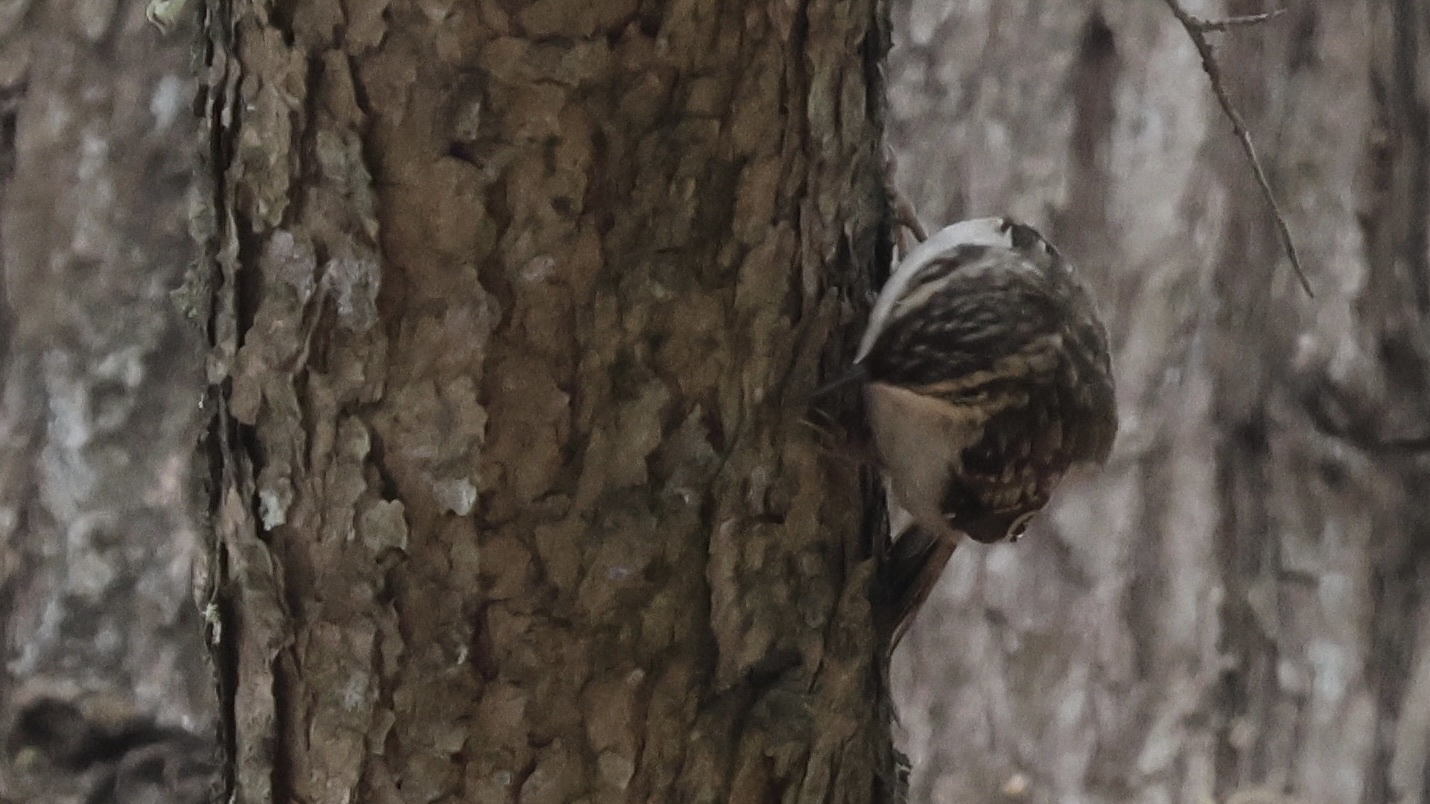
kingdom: Animalia
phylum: Chordata
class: Aves
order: Passeriformes
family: Certhiidae
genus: Certhia
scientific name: Certhia americana
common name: Brown creeper
